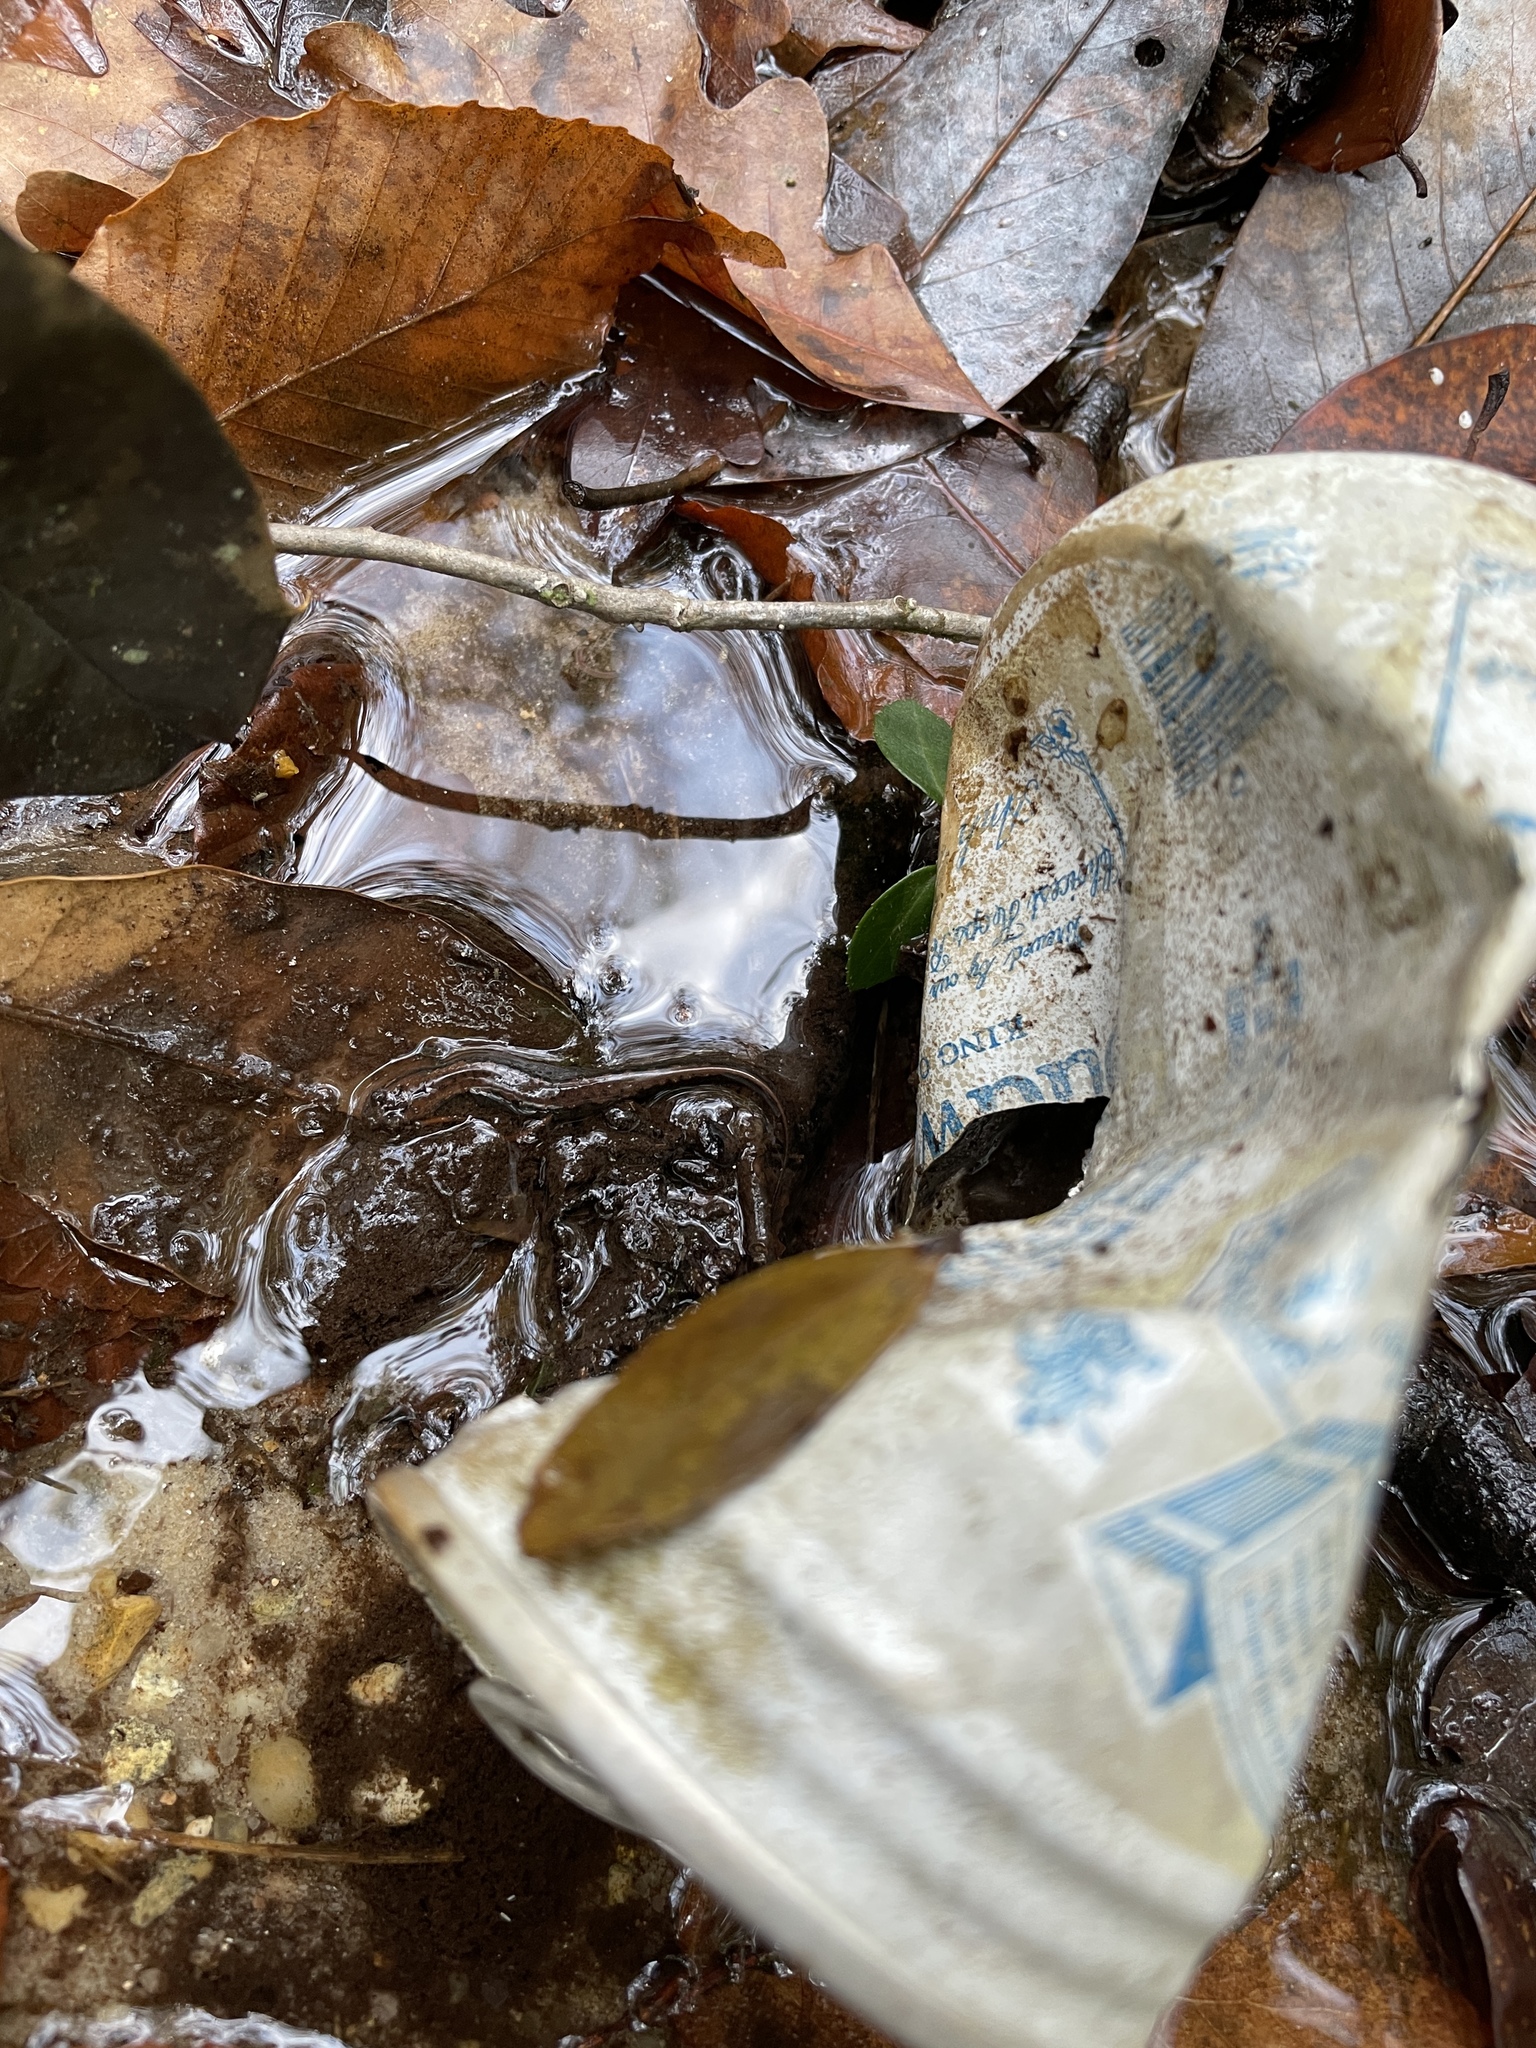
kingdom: Animalia
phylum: Chordata
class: Amphibia
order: Caudata
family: Plethodontidae
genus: Desmognathus
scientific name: Desmognathus conanti
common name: Spotted dusky salamander
